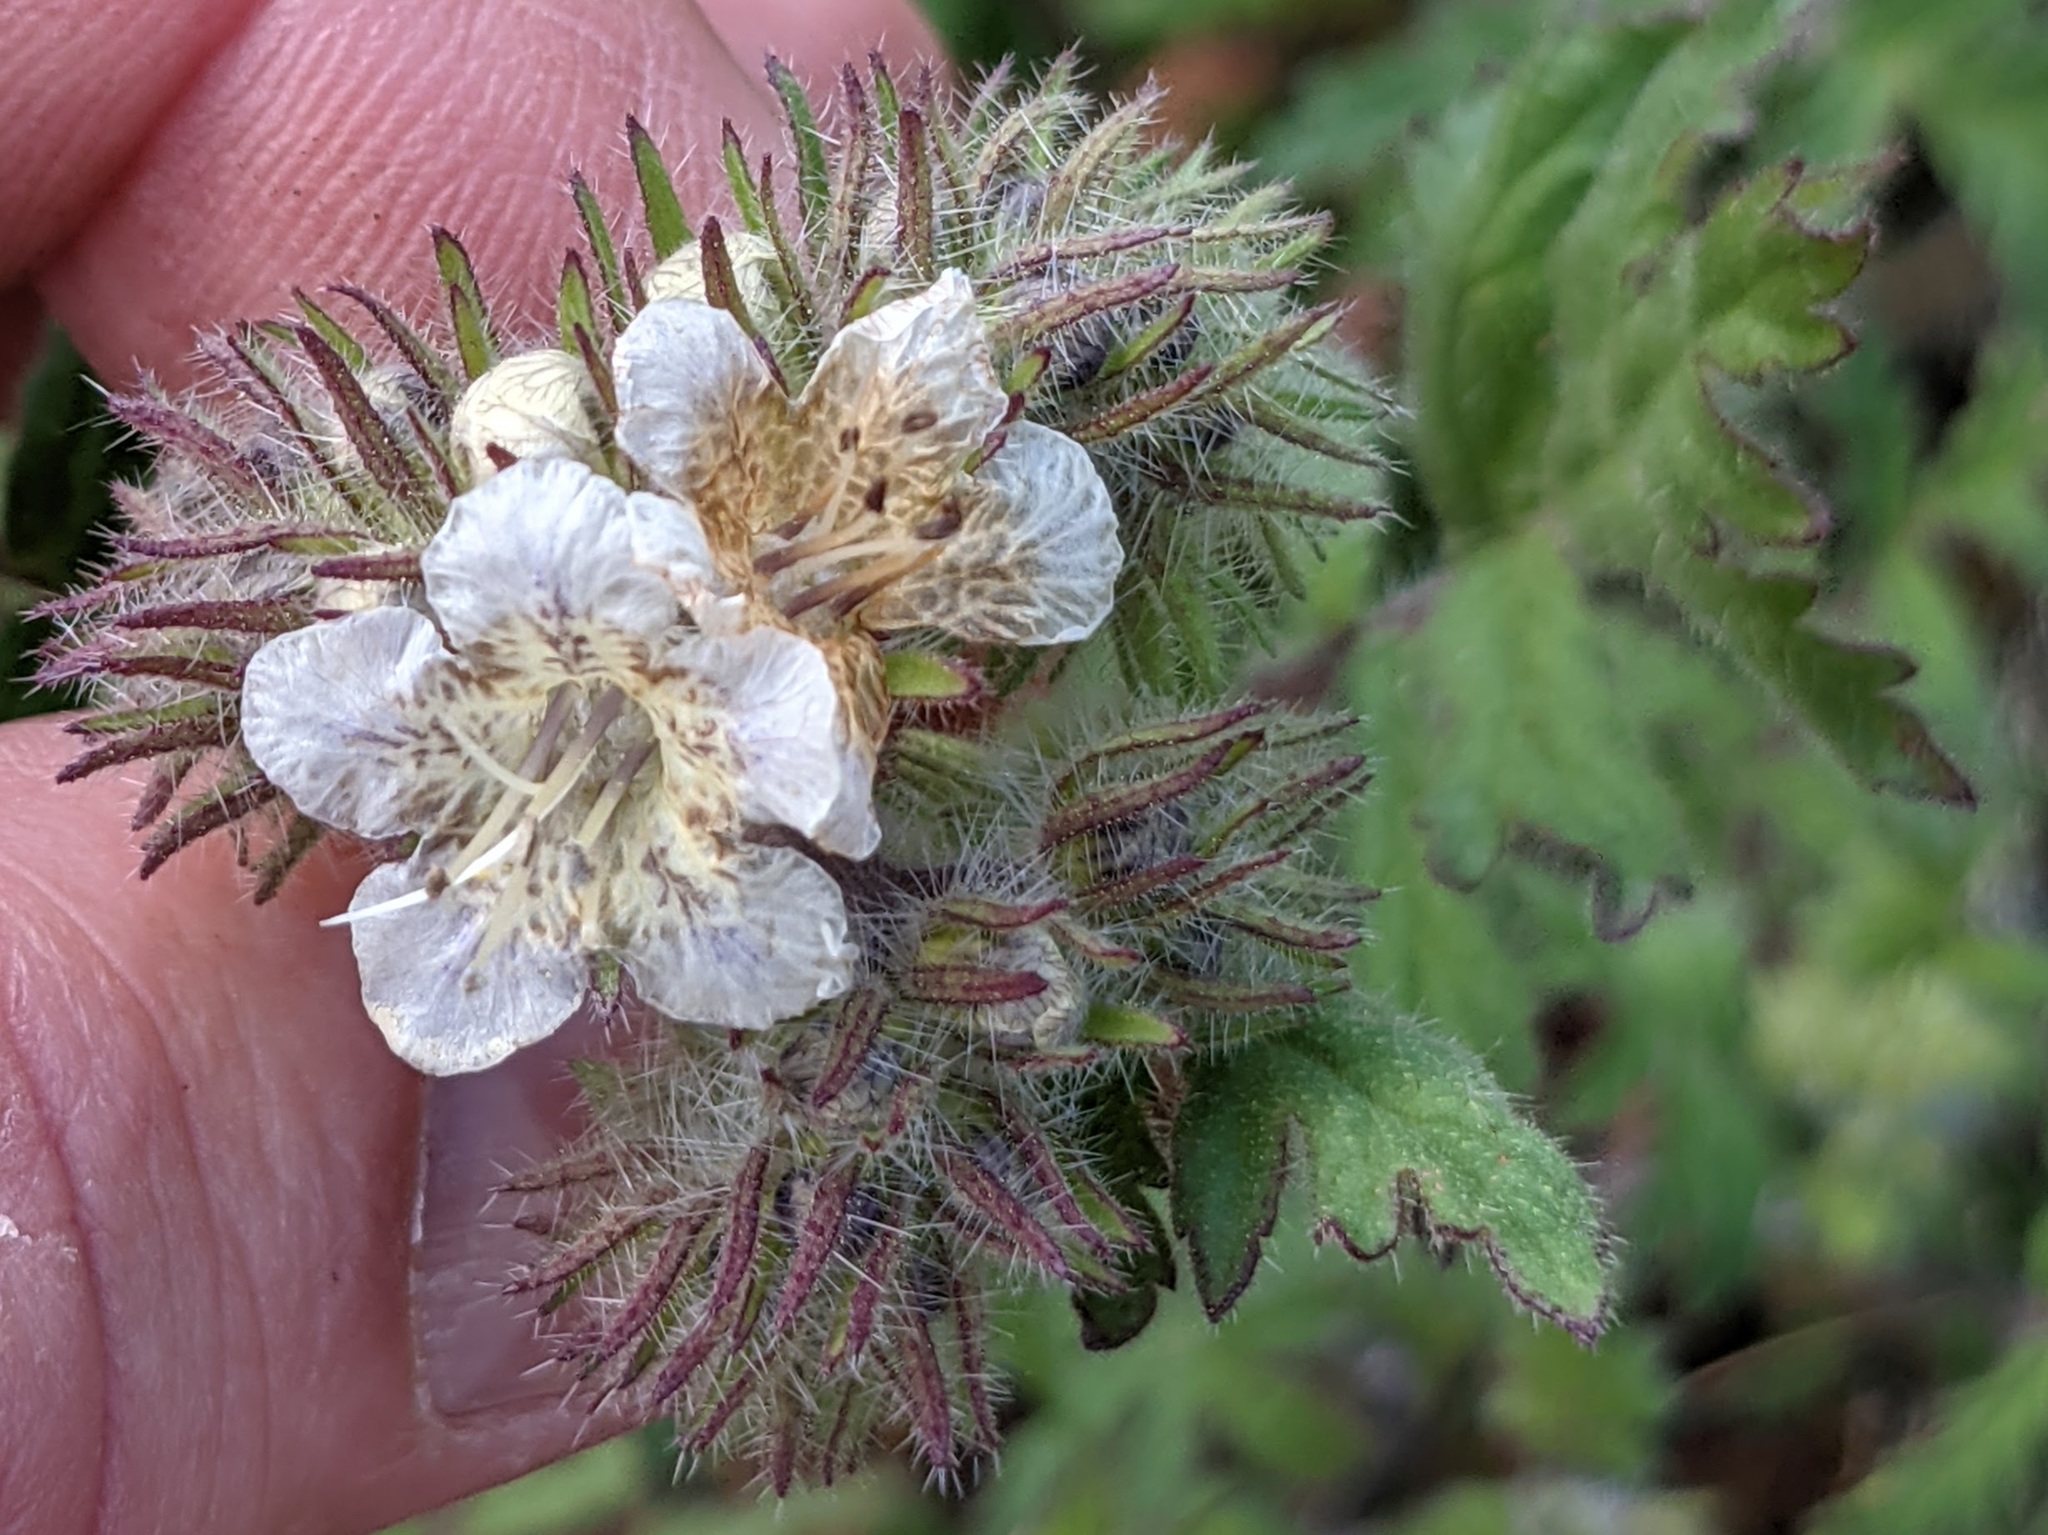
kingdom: Plantae
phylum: Tracheophyta
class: Magnoliopsida
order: Boraginales
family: Hydrophyllaceae
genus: Phacelia
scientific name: Phacelia cicutaria
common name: Caterpillar phacelia
